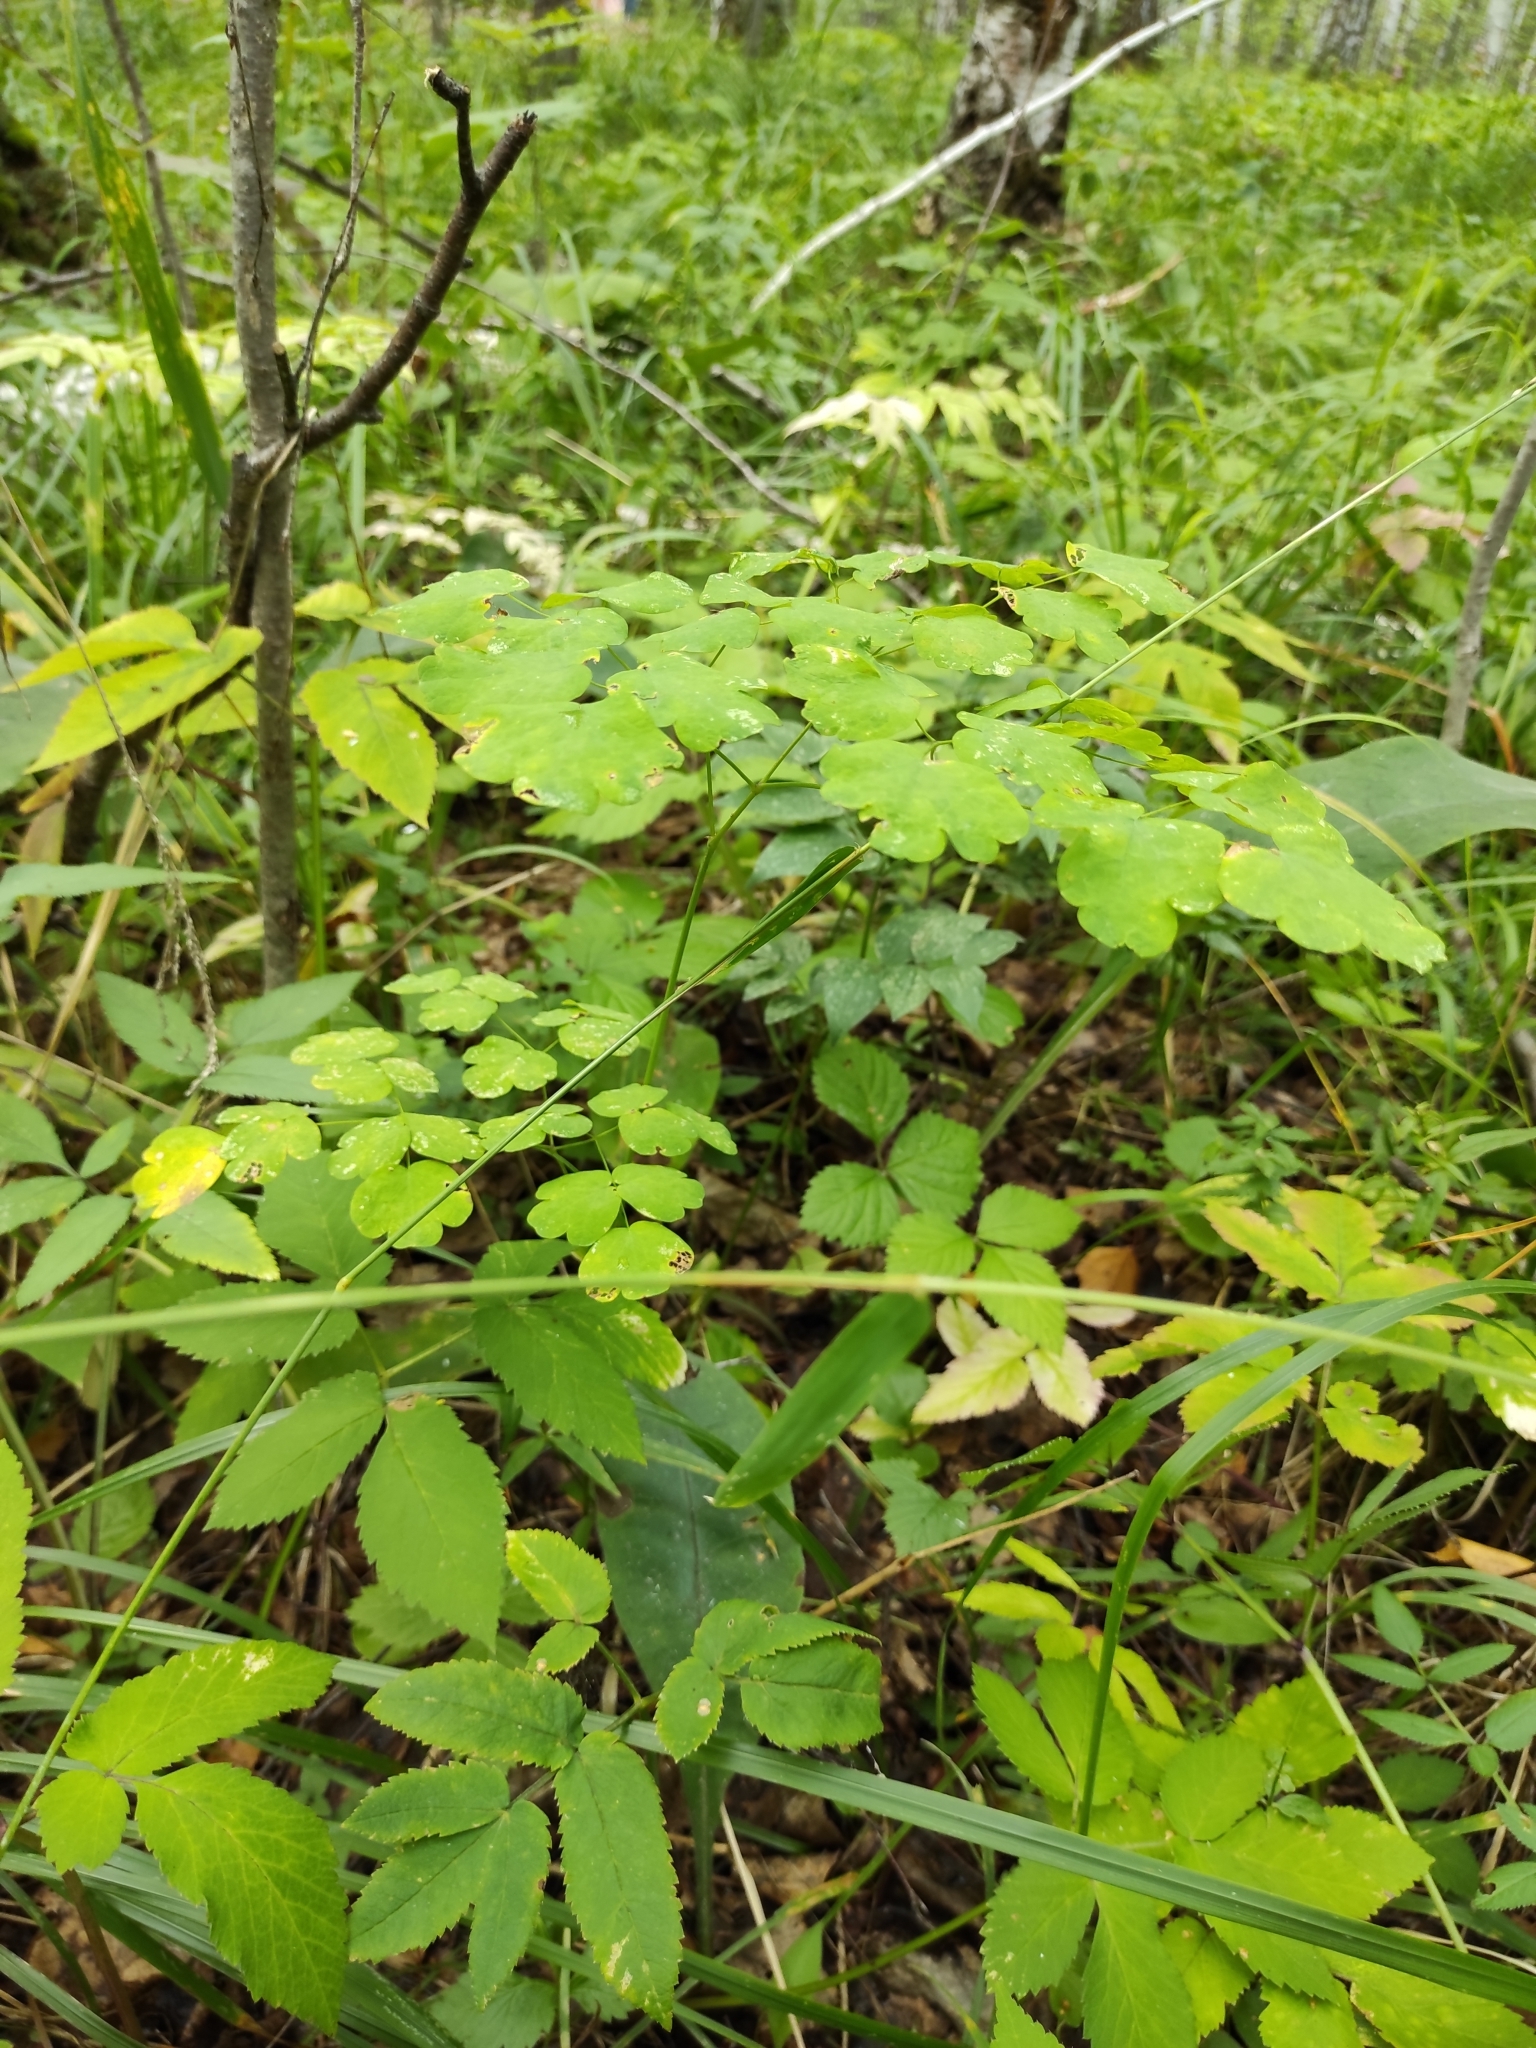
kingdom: Plantae
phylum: Tracheophyta
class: Magnoliopsida
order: Ranunculales
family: Ranunculaceae
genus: Thalictrum
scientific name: Thalictrum minus
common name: Lesser meadow-rue
